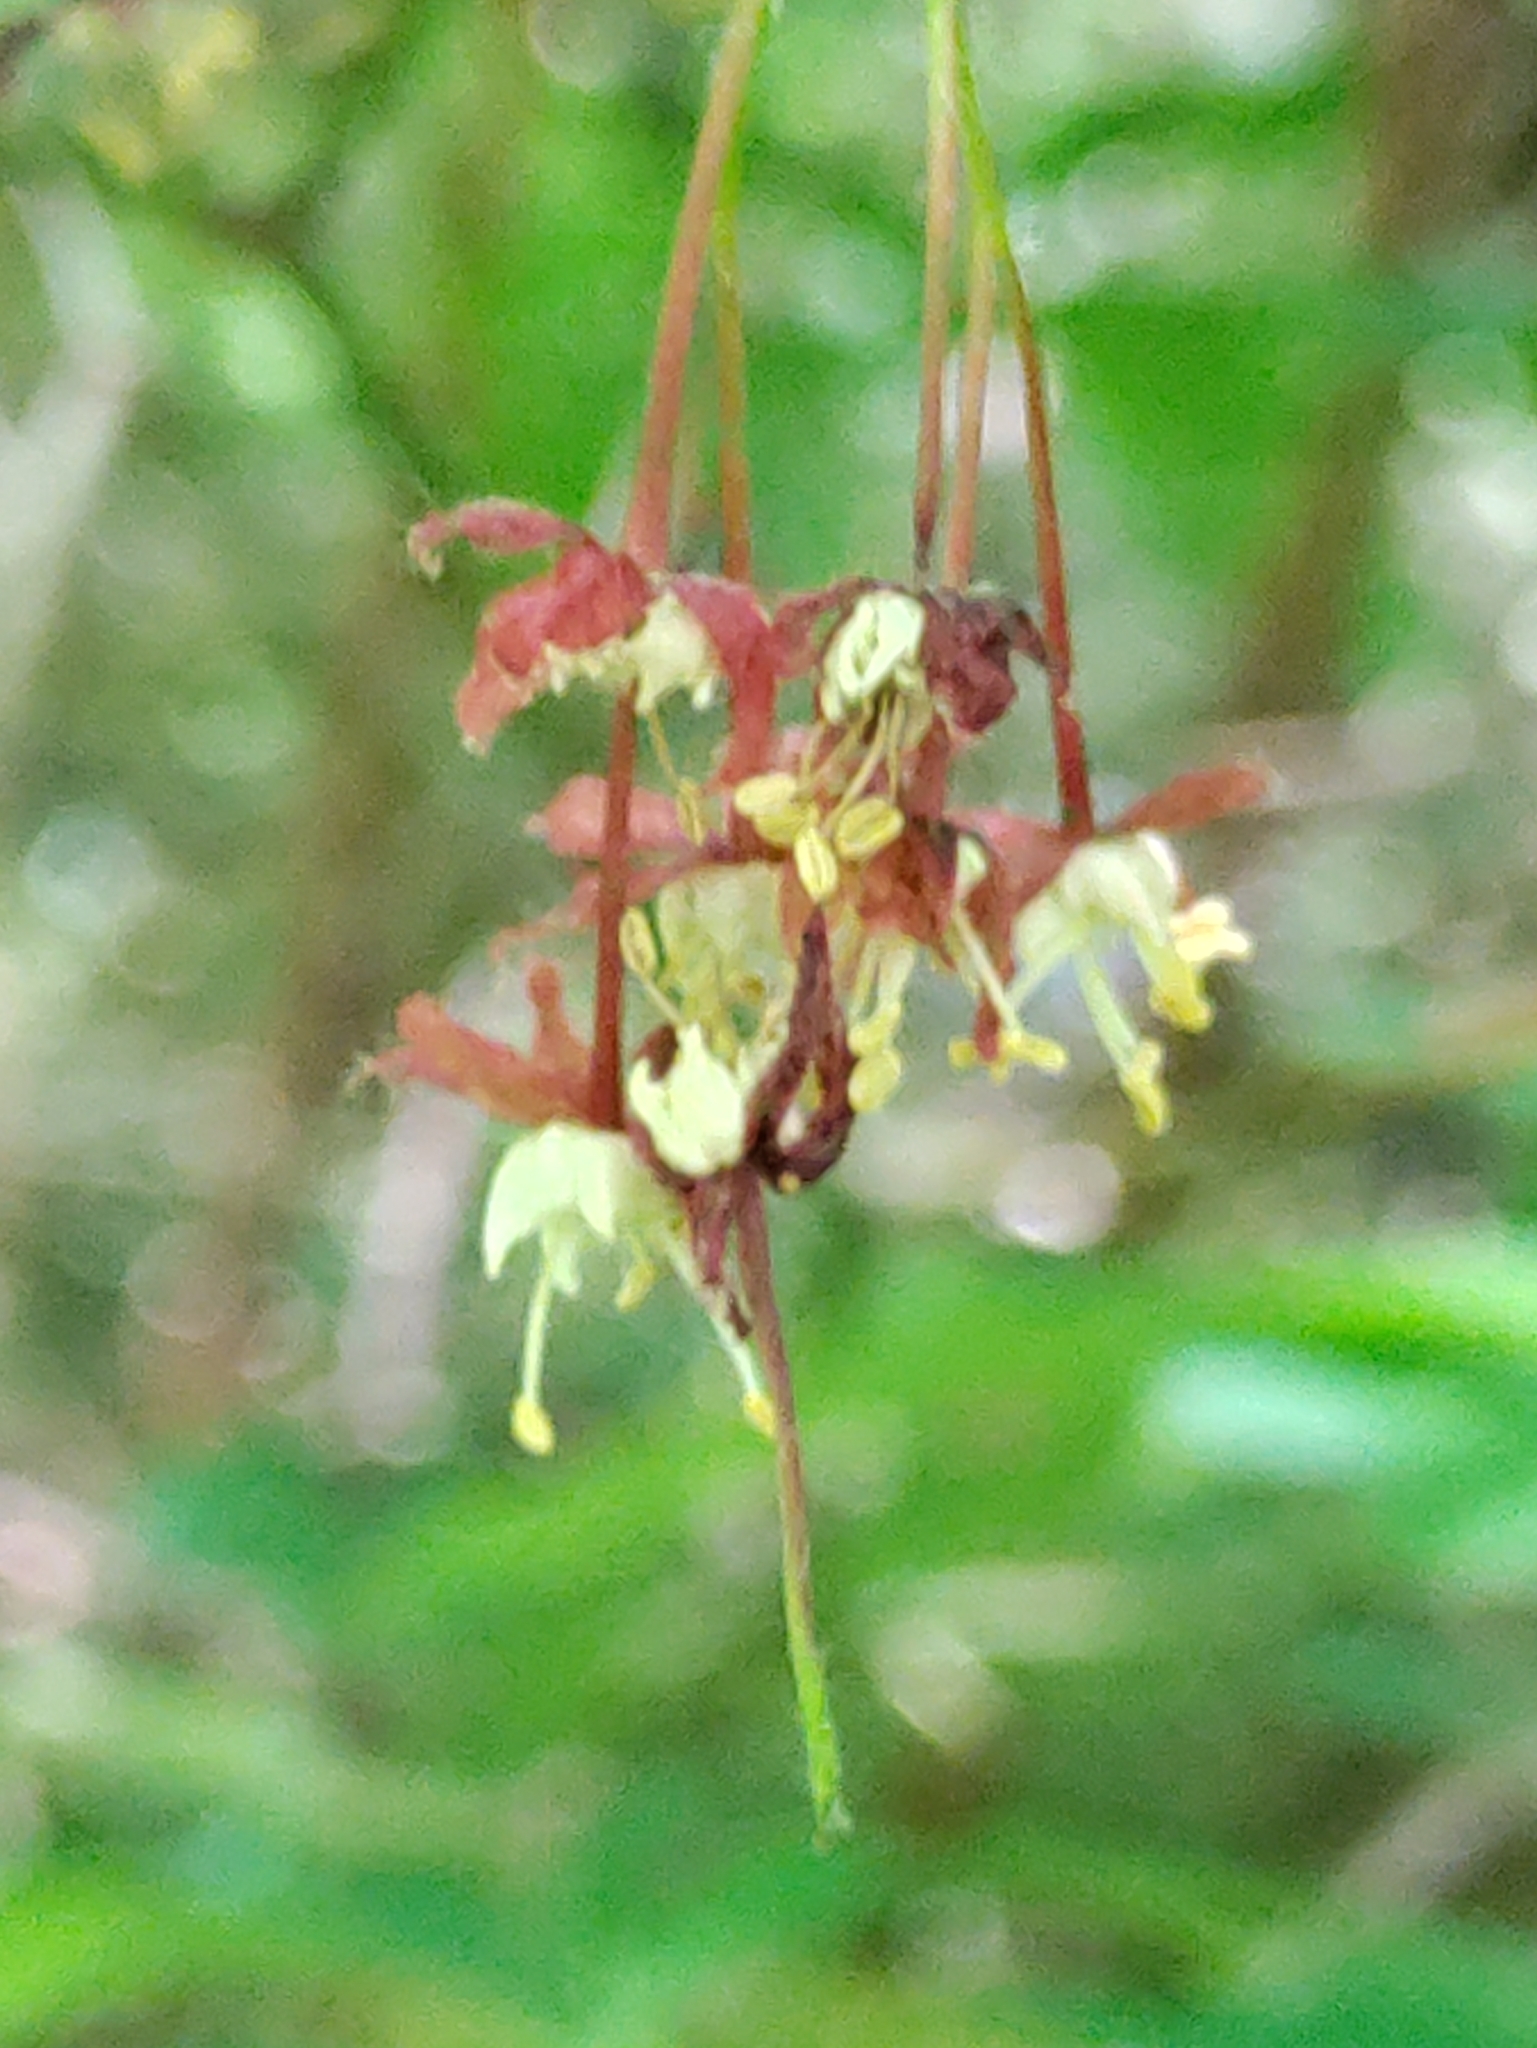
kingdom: Plantae
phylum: Tracheophyta
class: Magnoliopsida
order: Sapindales
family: Sapindaceae
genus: Acer
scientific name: Acer circinatum
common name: Vine maple
